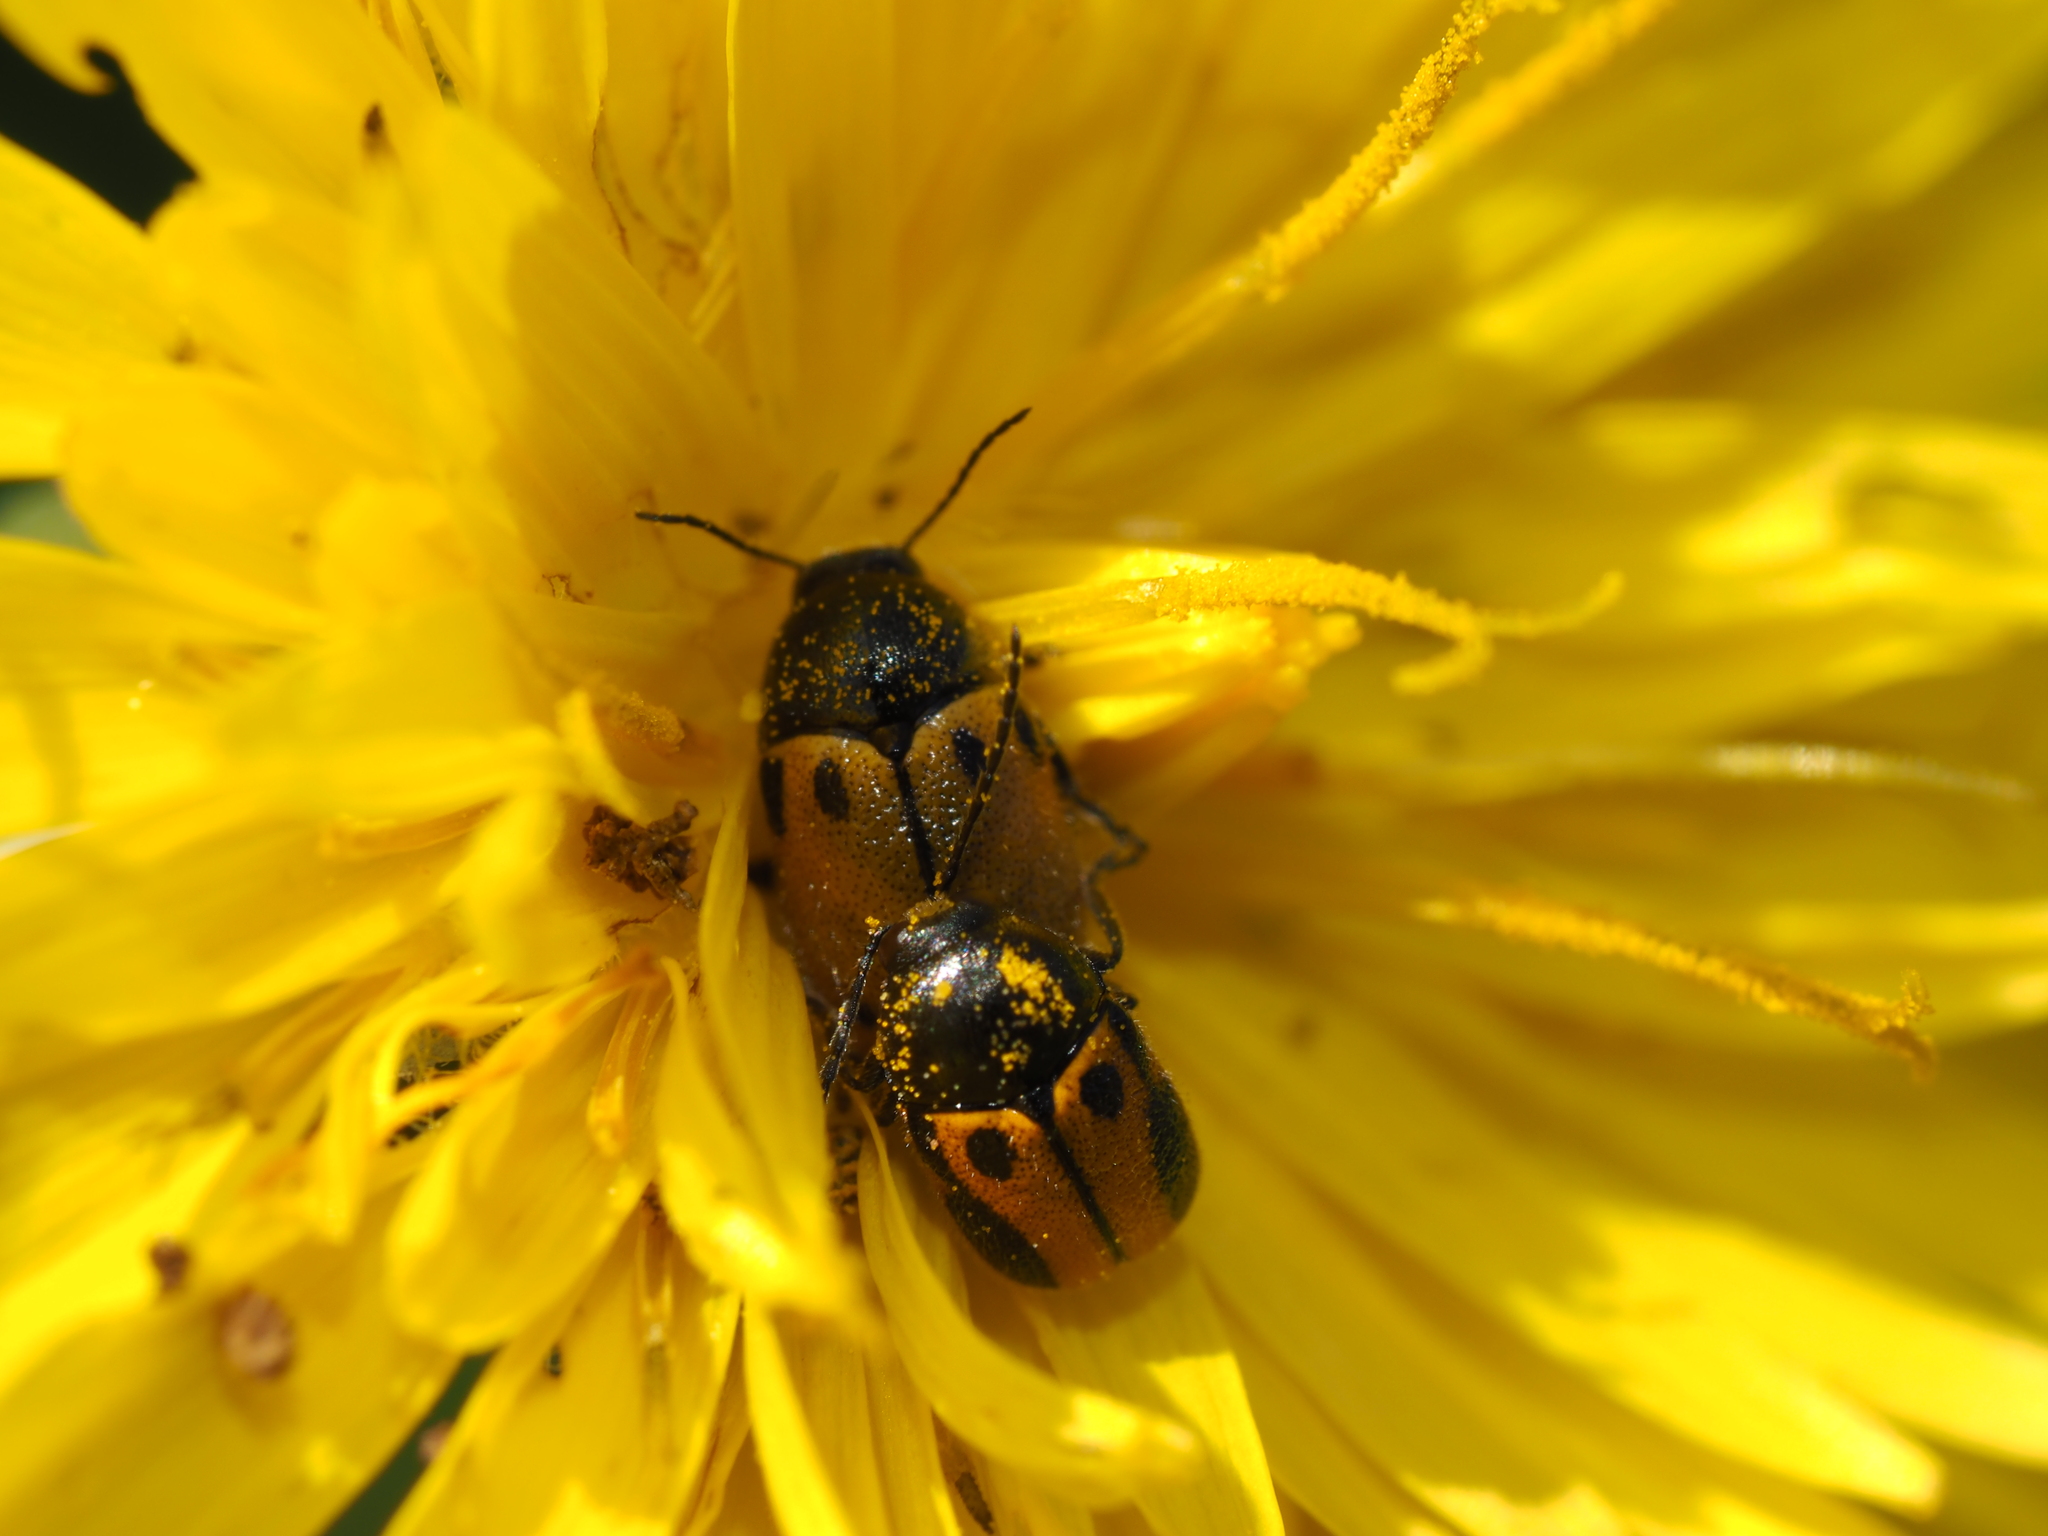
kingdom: Animalia
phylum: Arthropoda
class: Insecta
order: Coleoptera
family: Chrysomelidae
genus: Cryptocephalus
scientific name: Cryptocephalus rugicollis
